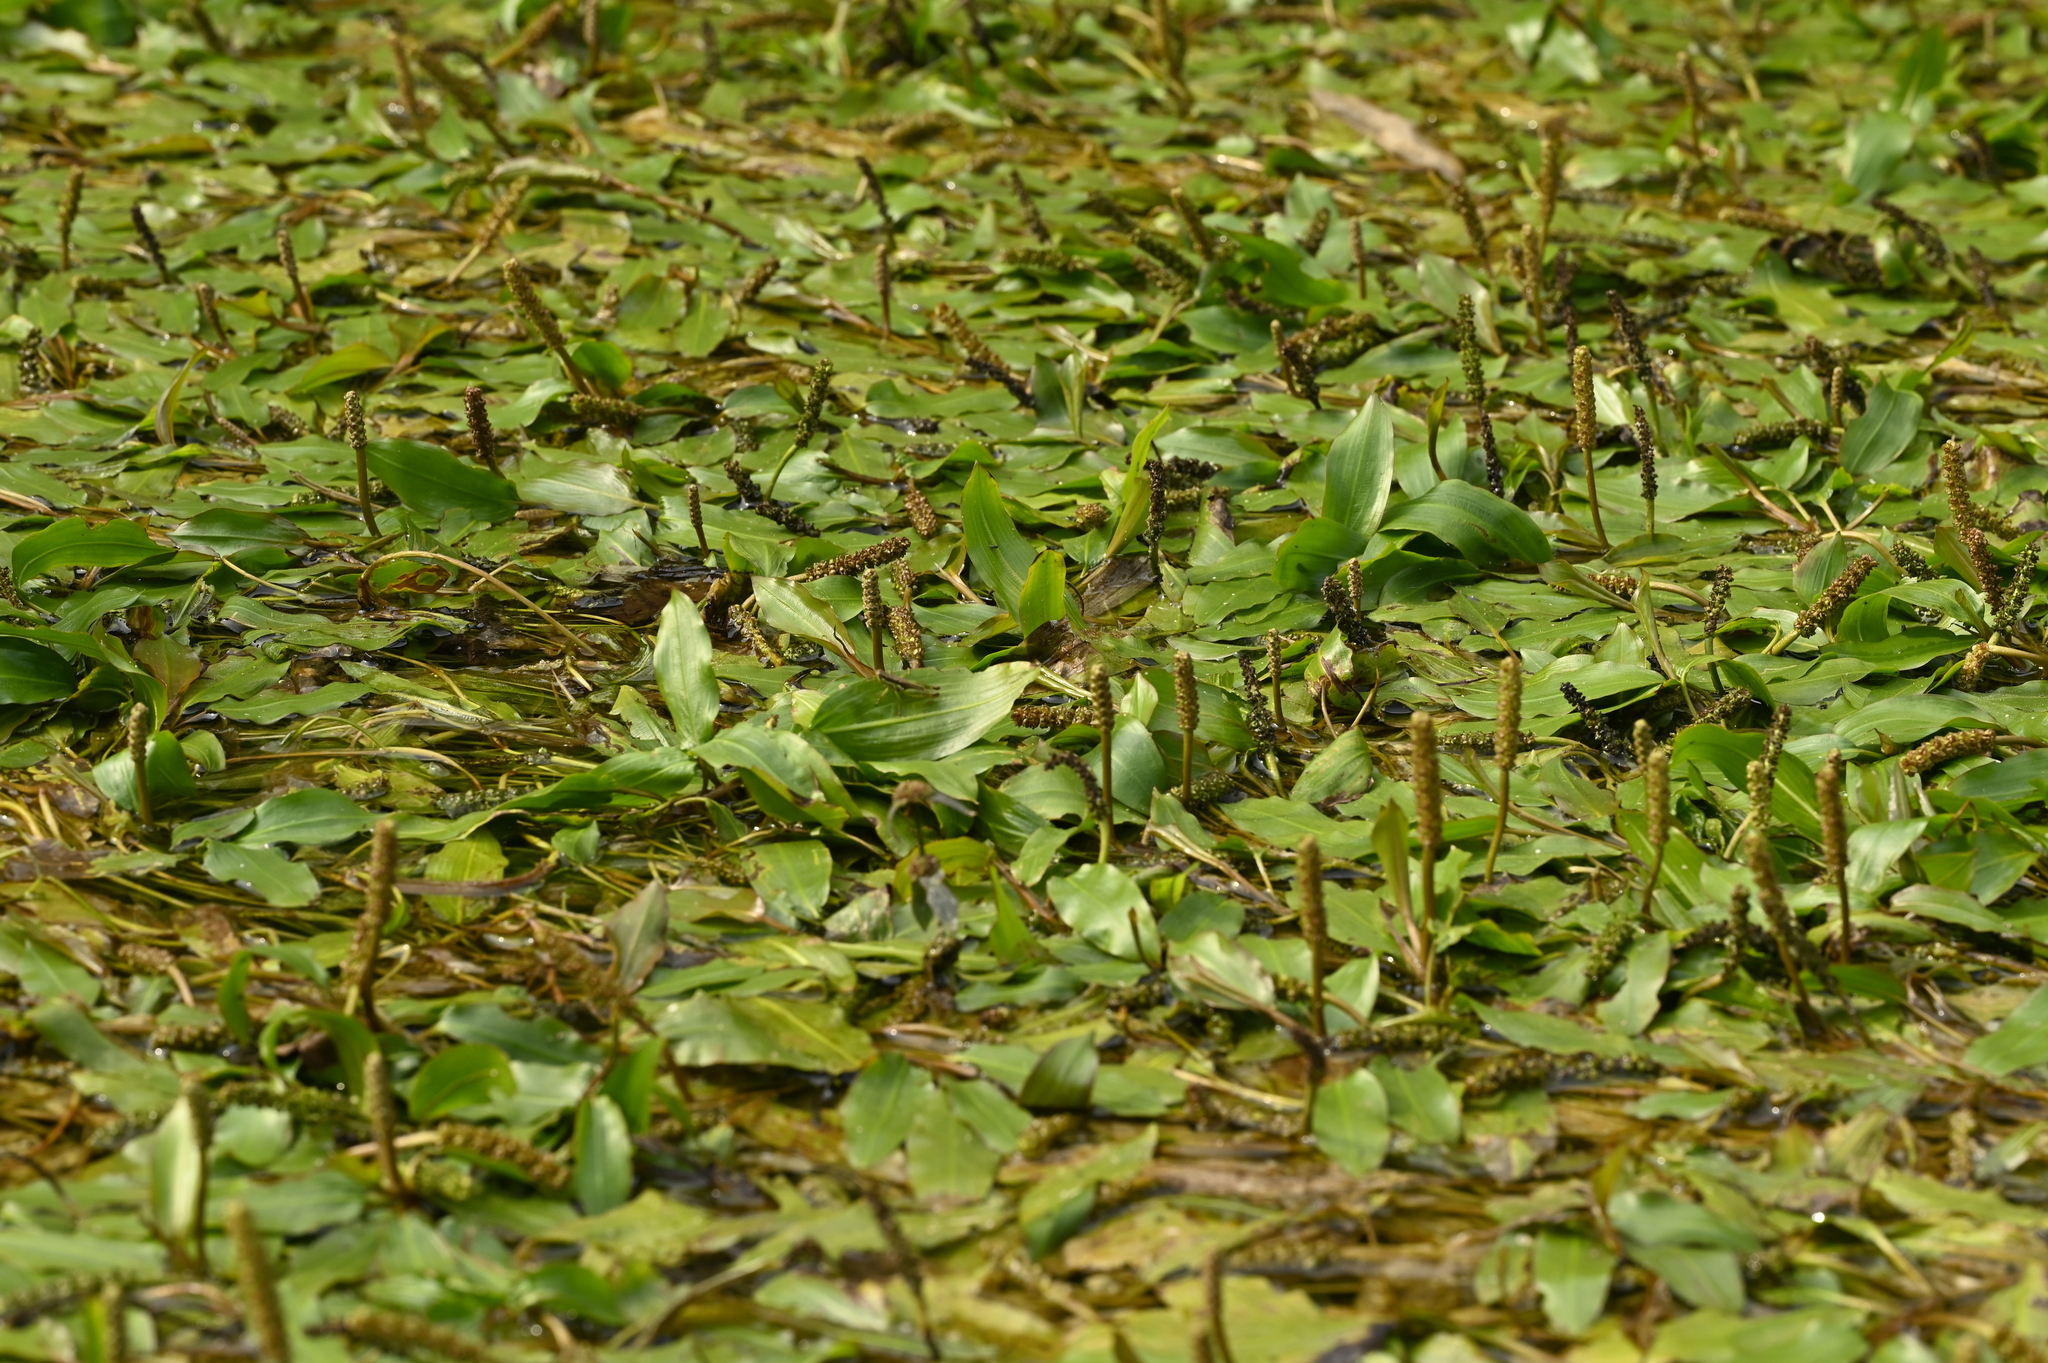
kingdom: Plantae
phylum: Tracheophyta
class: Liliopsida
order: Alismatales
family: Potamogetonaceae
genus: Potamogeton
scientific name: Potamogeton wrightii
